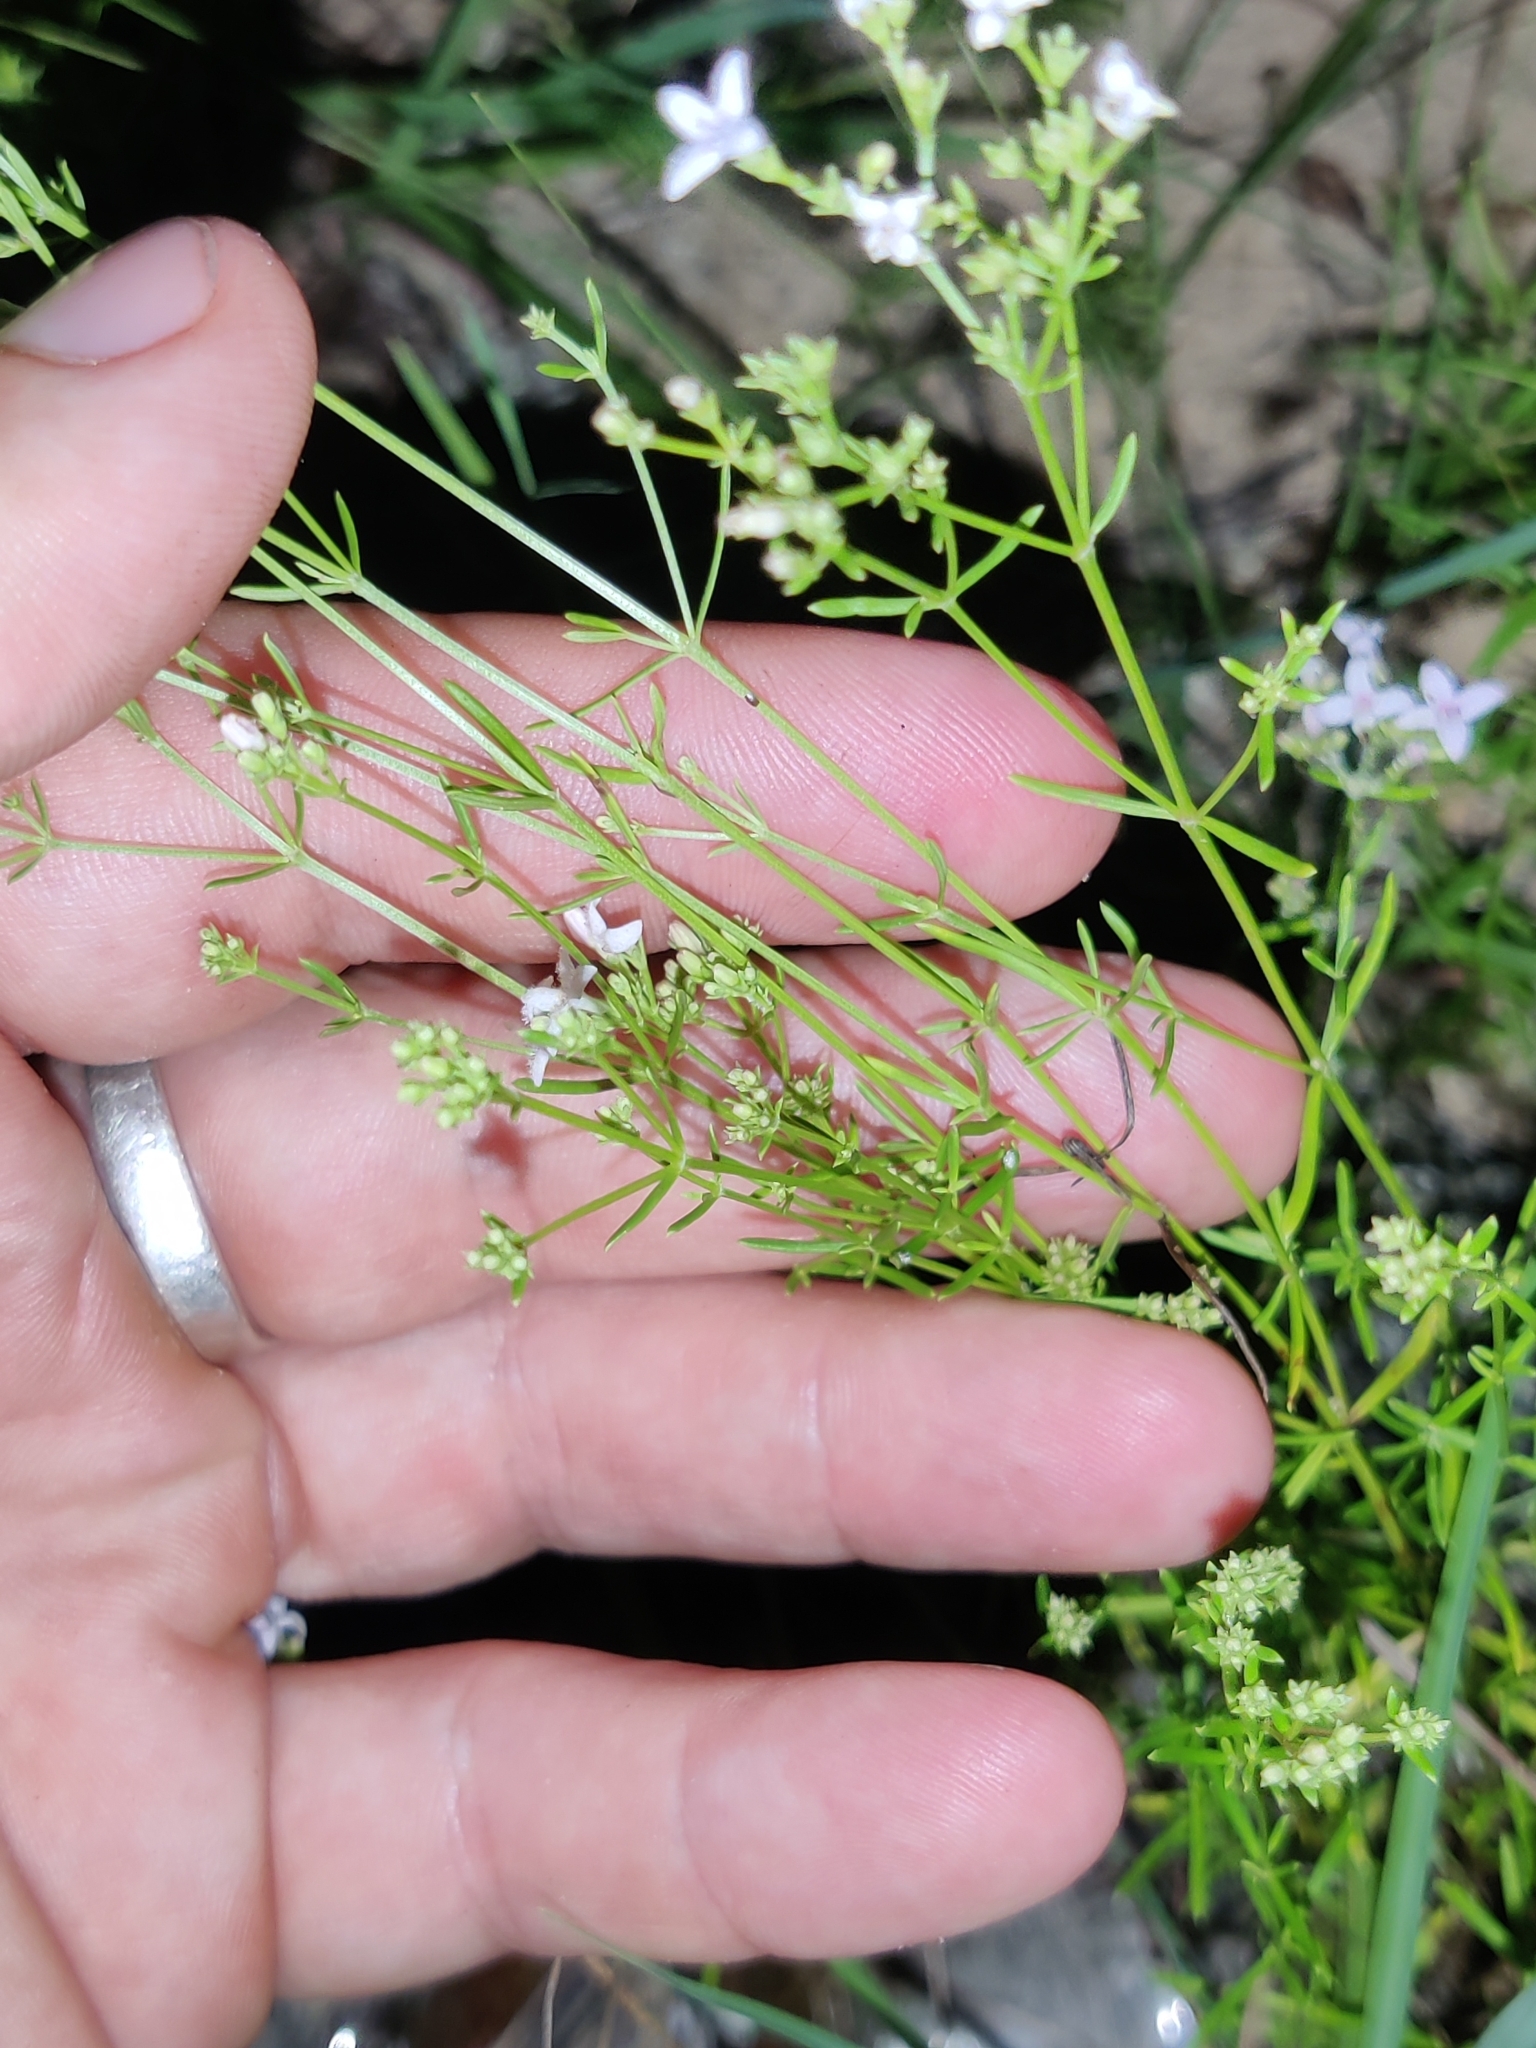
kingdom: Plantae
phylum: Tracheophyta
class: Magnoliopsida
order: Gentianales
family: Rubiaceae
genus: Stenaria
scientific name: Stenaria nigricans
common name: Diamondflowers
